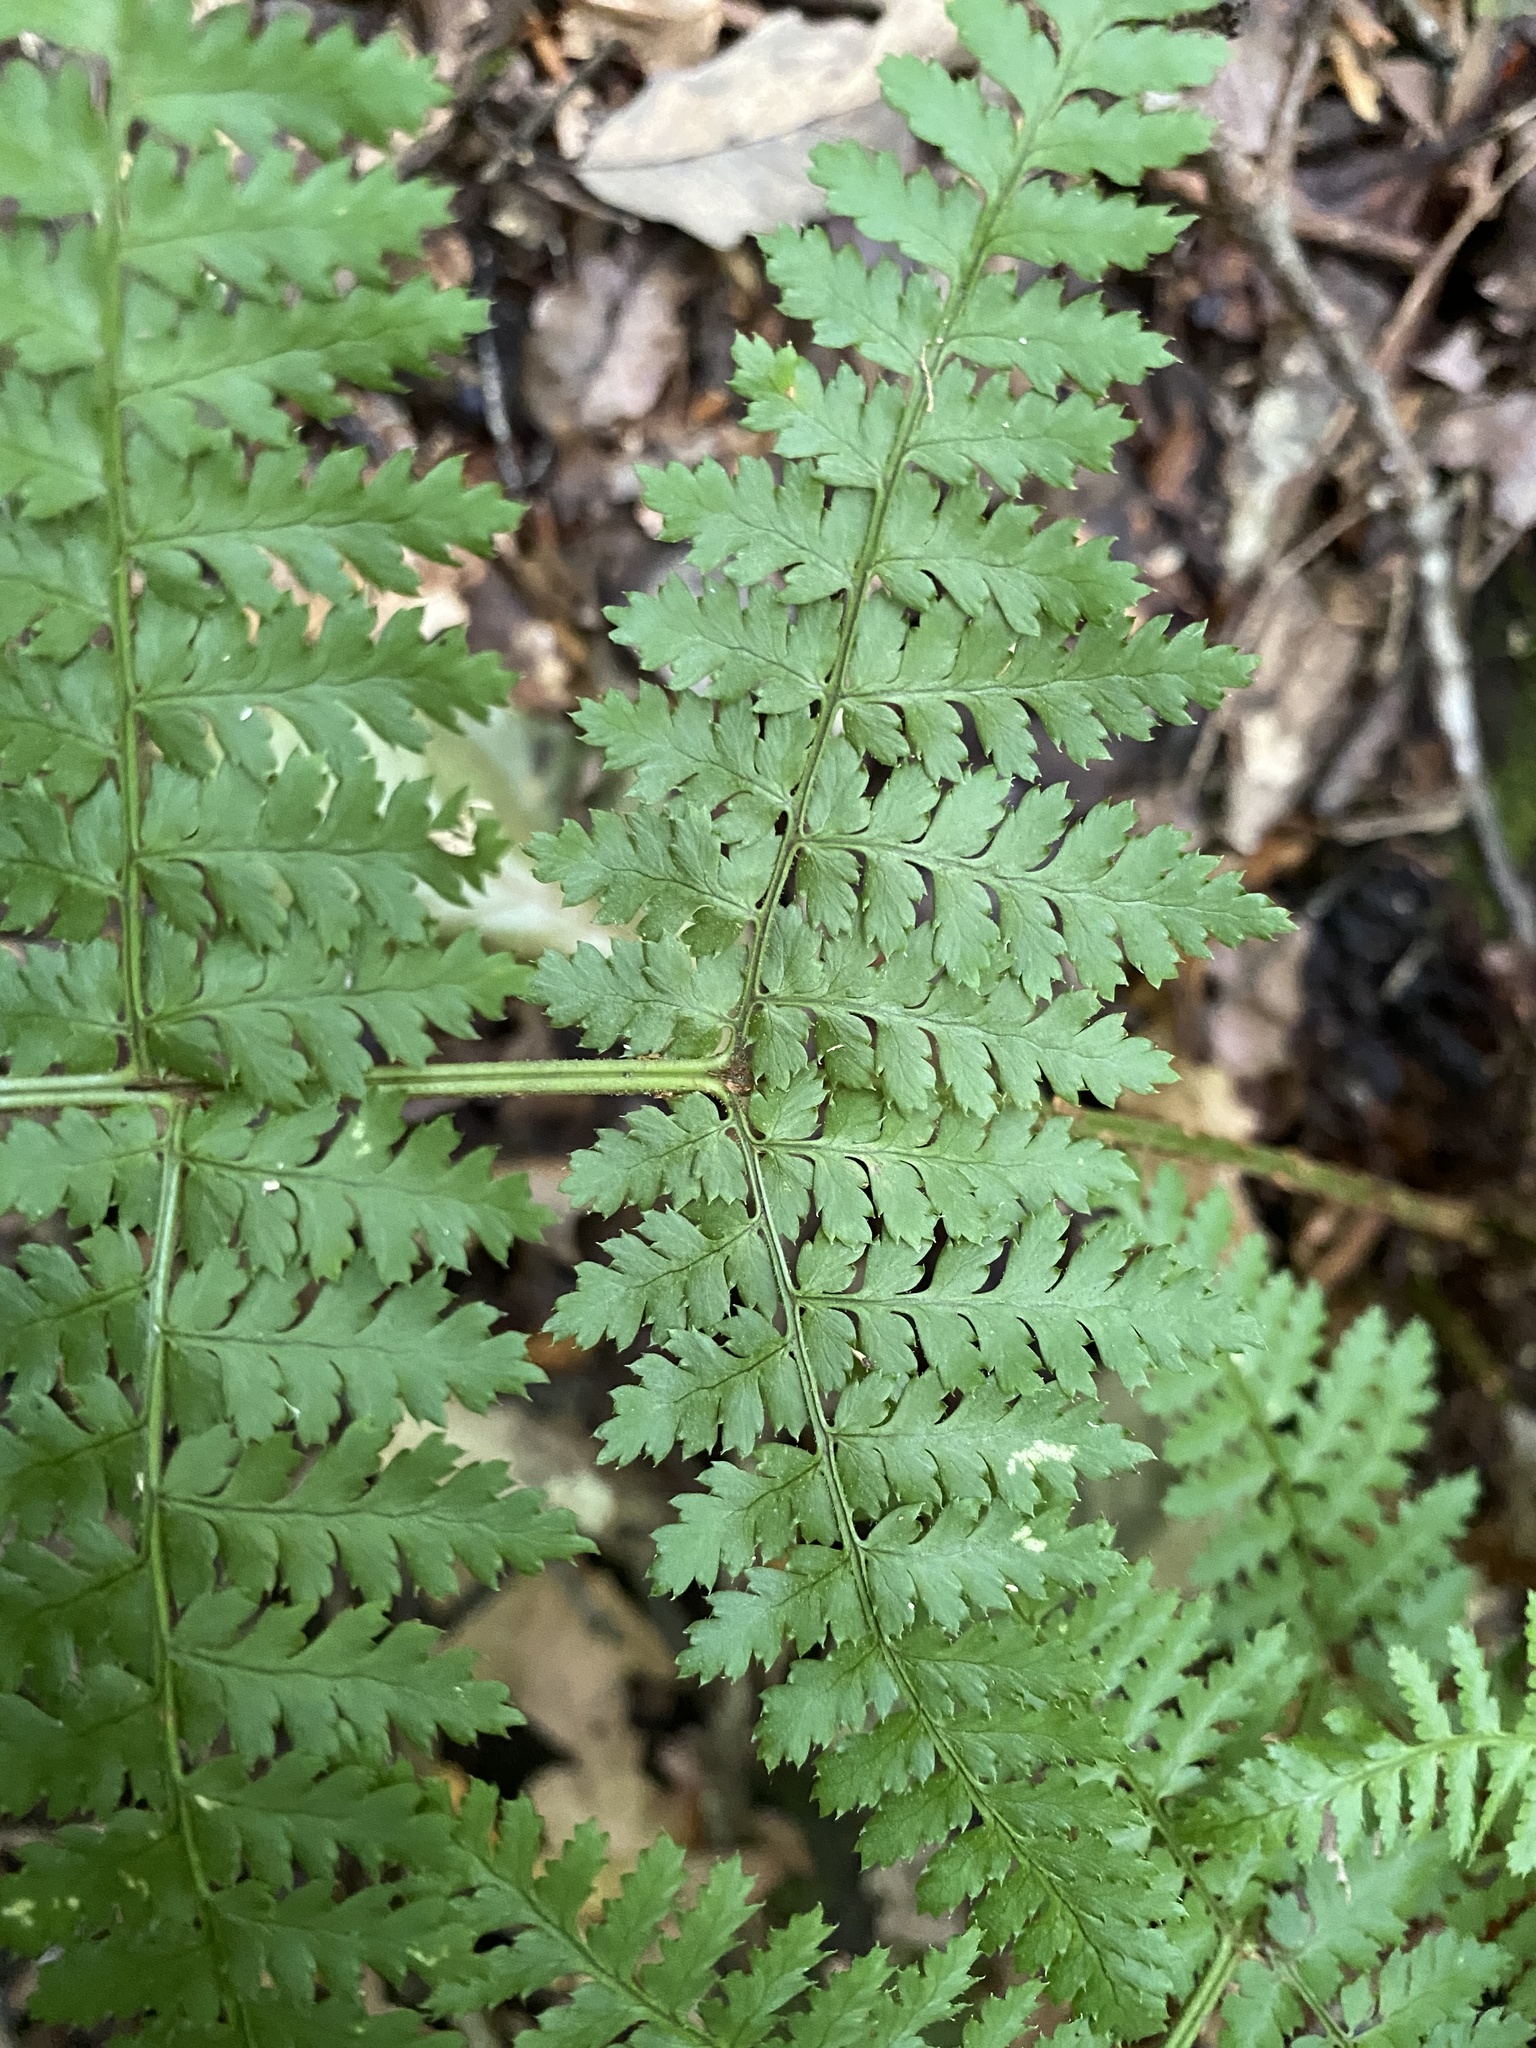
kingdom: Plantae
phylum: Tracheophyta
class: Polypodiopsida
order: Polypodiales
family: Dryopteridaceae
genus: Dryopteris
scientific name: Dryopteris intermedia
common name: Evergreen wood fern
